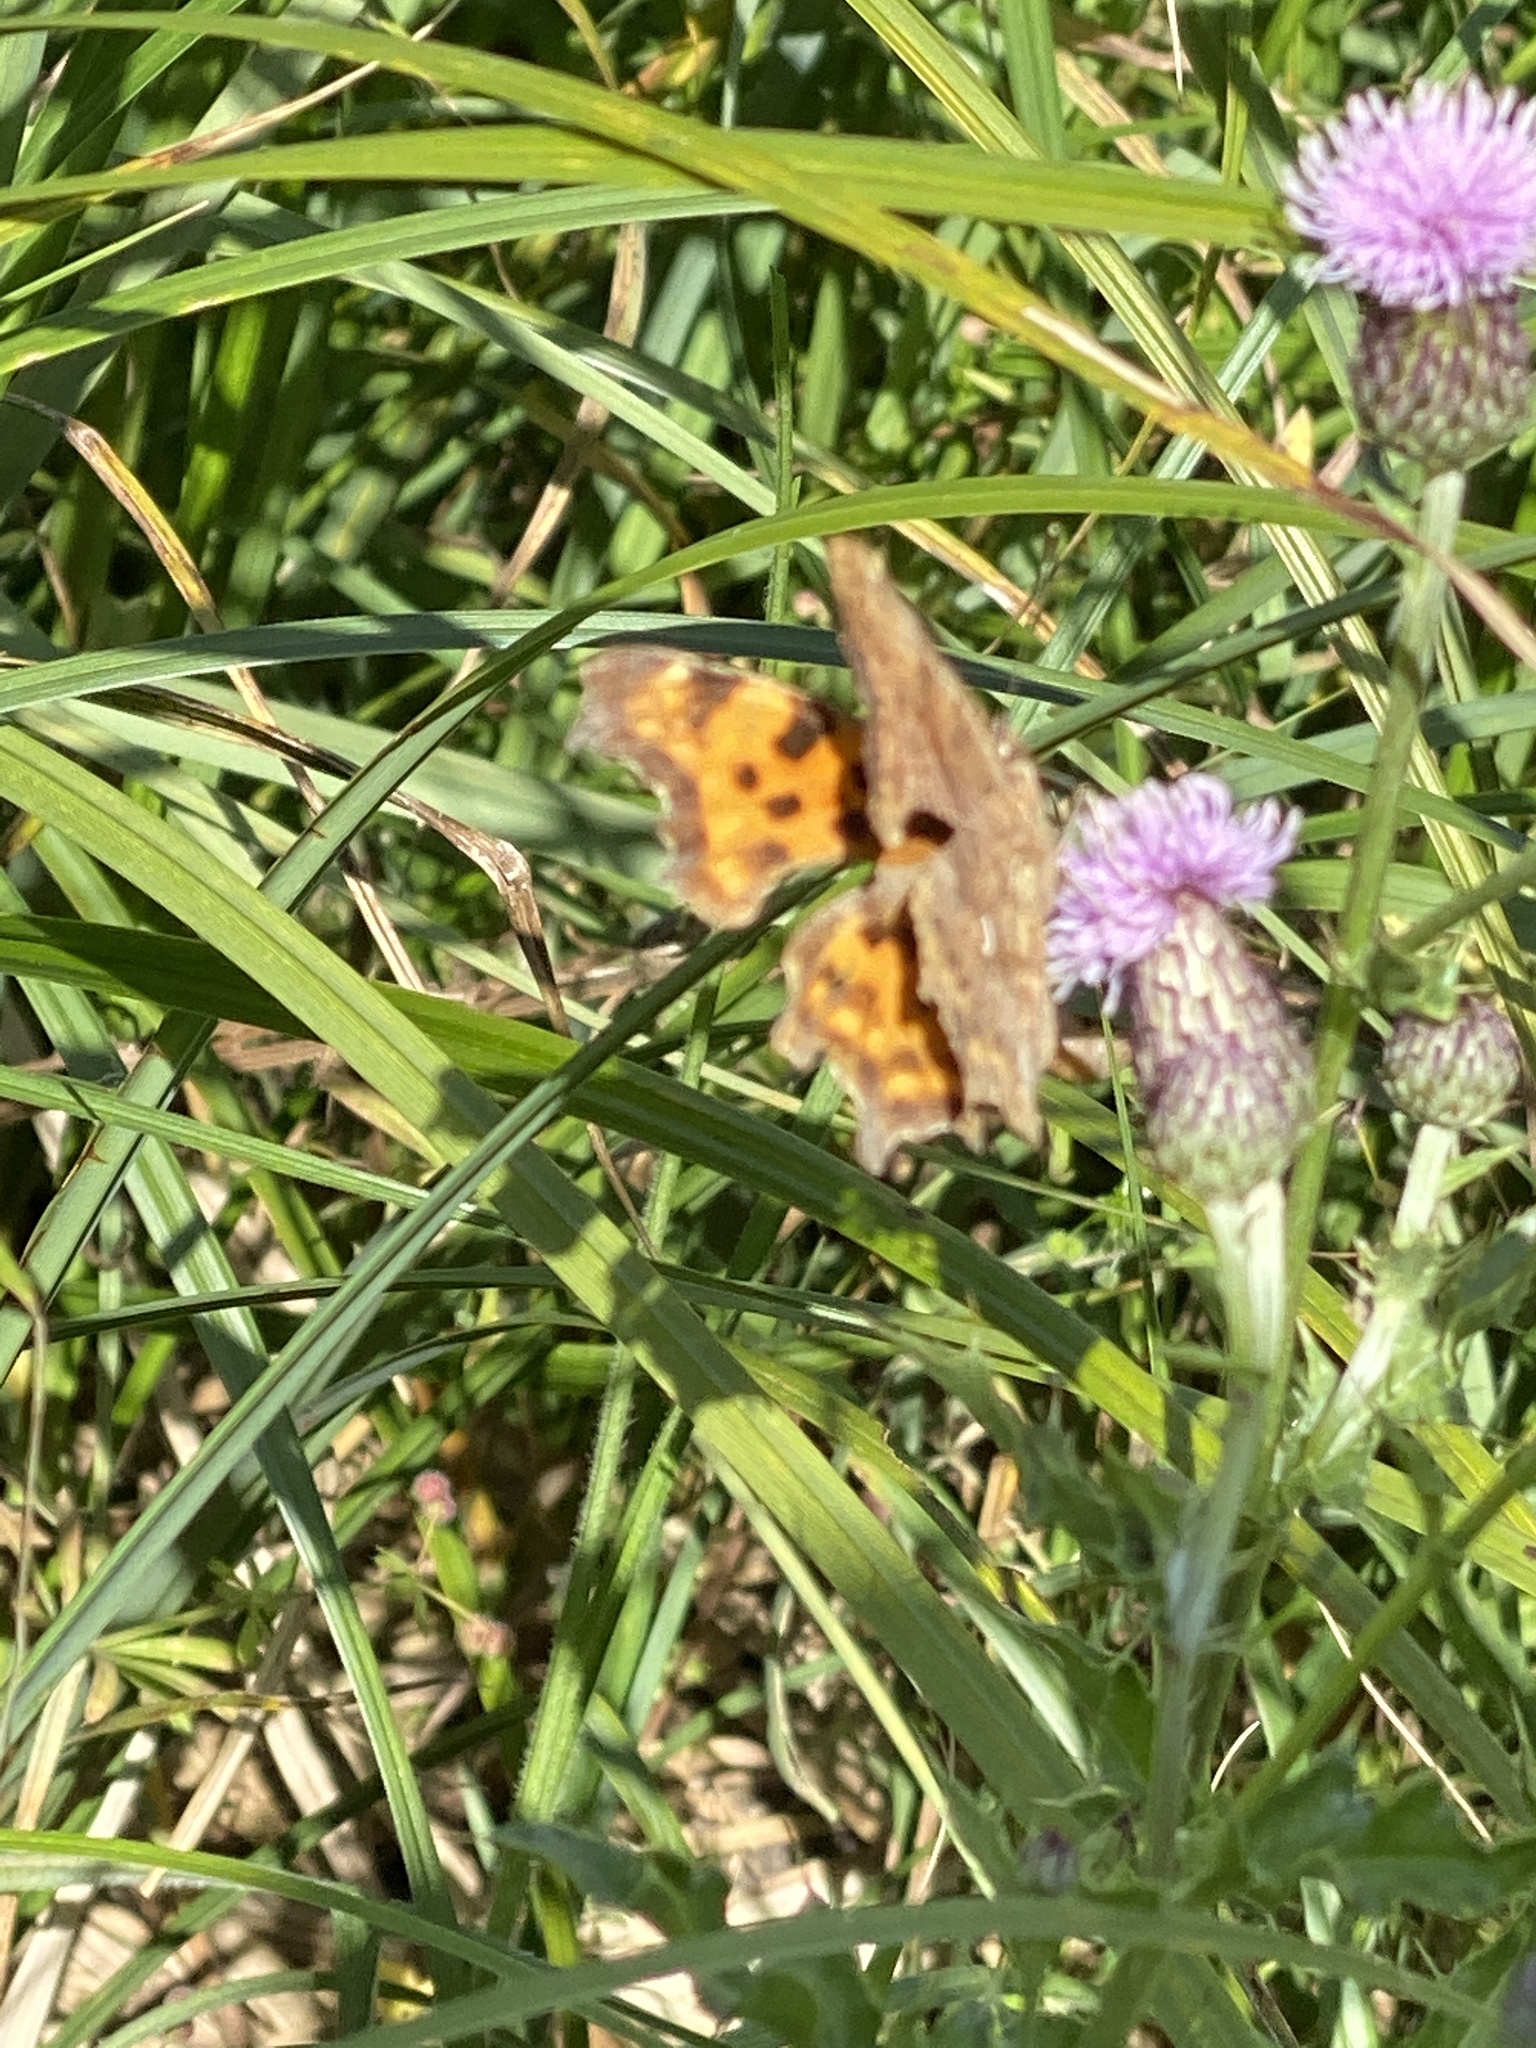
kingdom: Animalia
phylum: Arthropoda
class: Insecta
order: Lepidoptera
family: Nymphalidae
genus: Polygonia
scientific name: Polygonia c-album
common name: Comma
